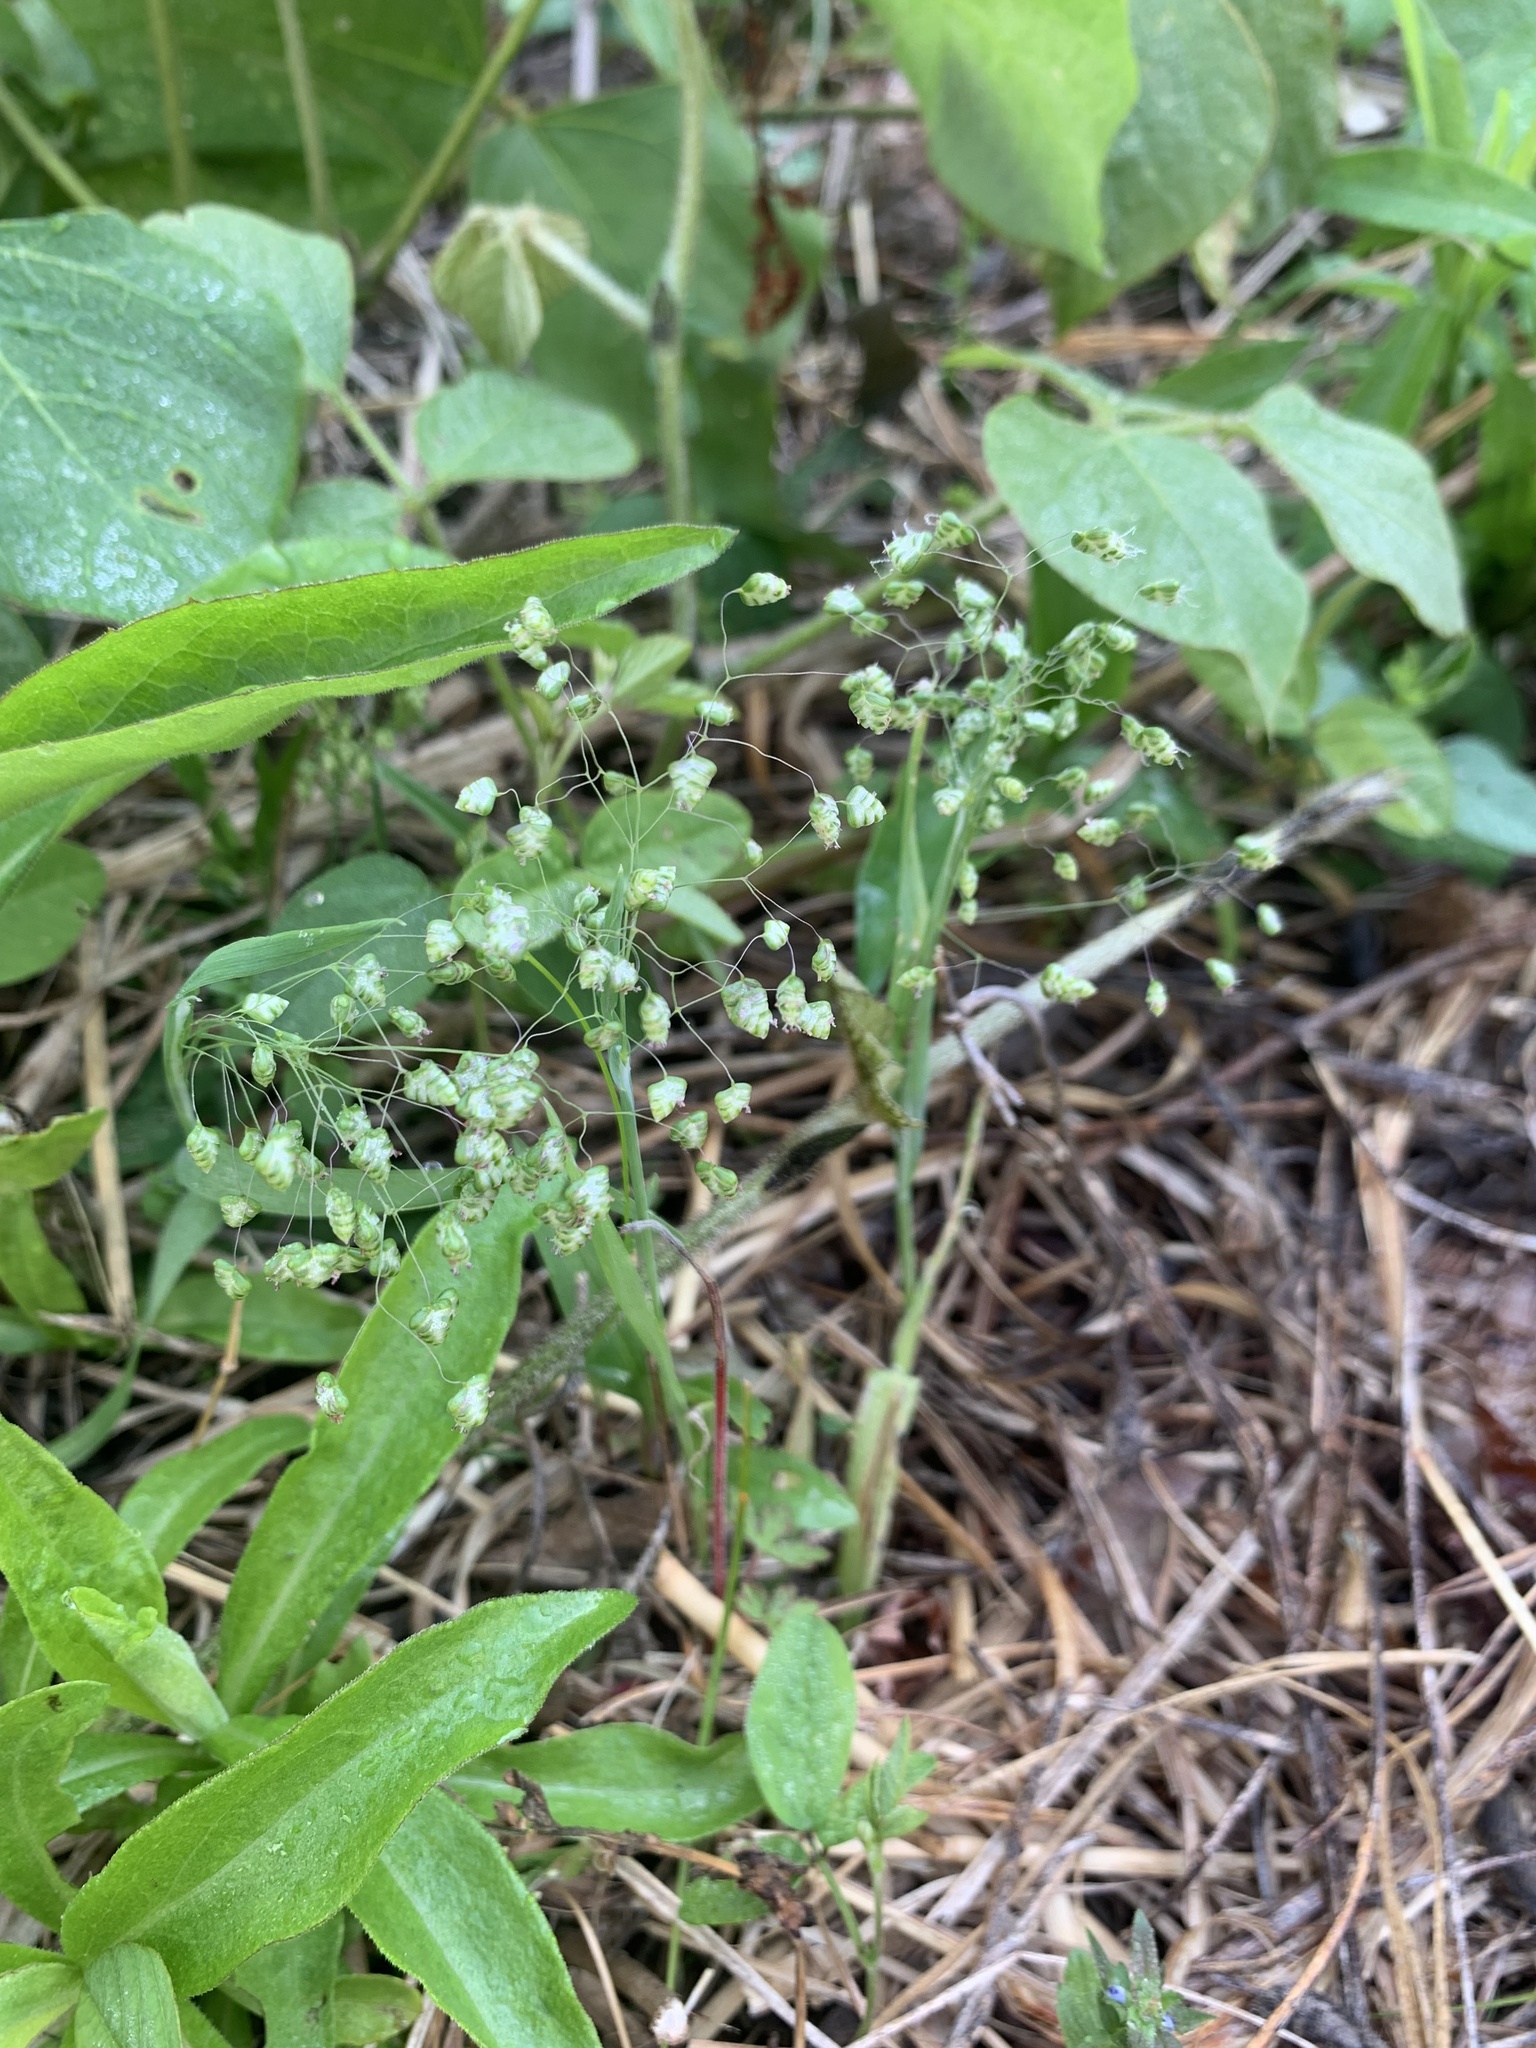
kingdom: Plantae
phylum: Tracheophyta
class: Liliopsida
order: Poales
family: Poaceae
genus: Briza
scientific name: Briza minor
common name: Lesser quaking-grass
